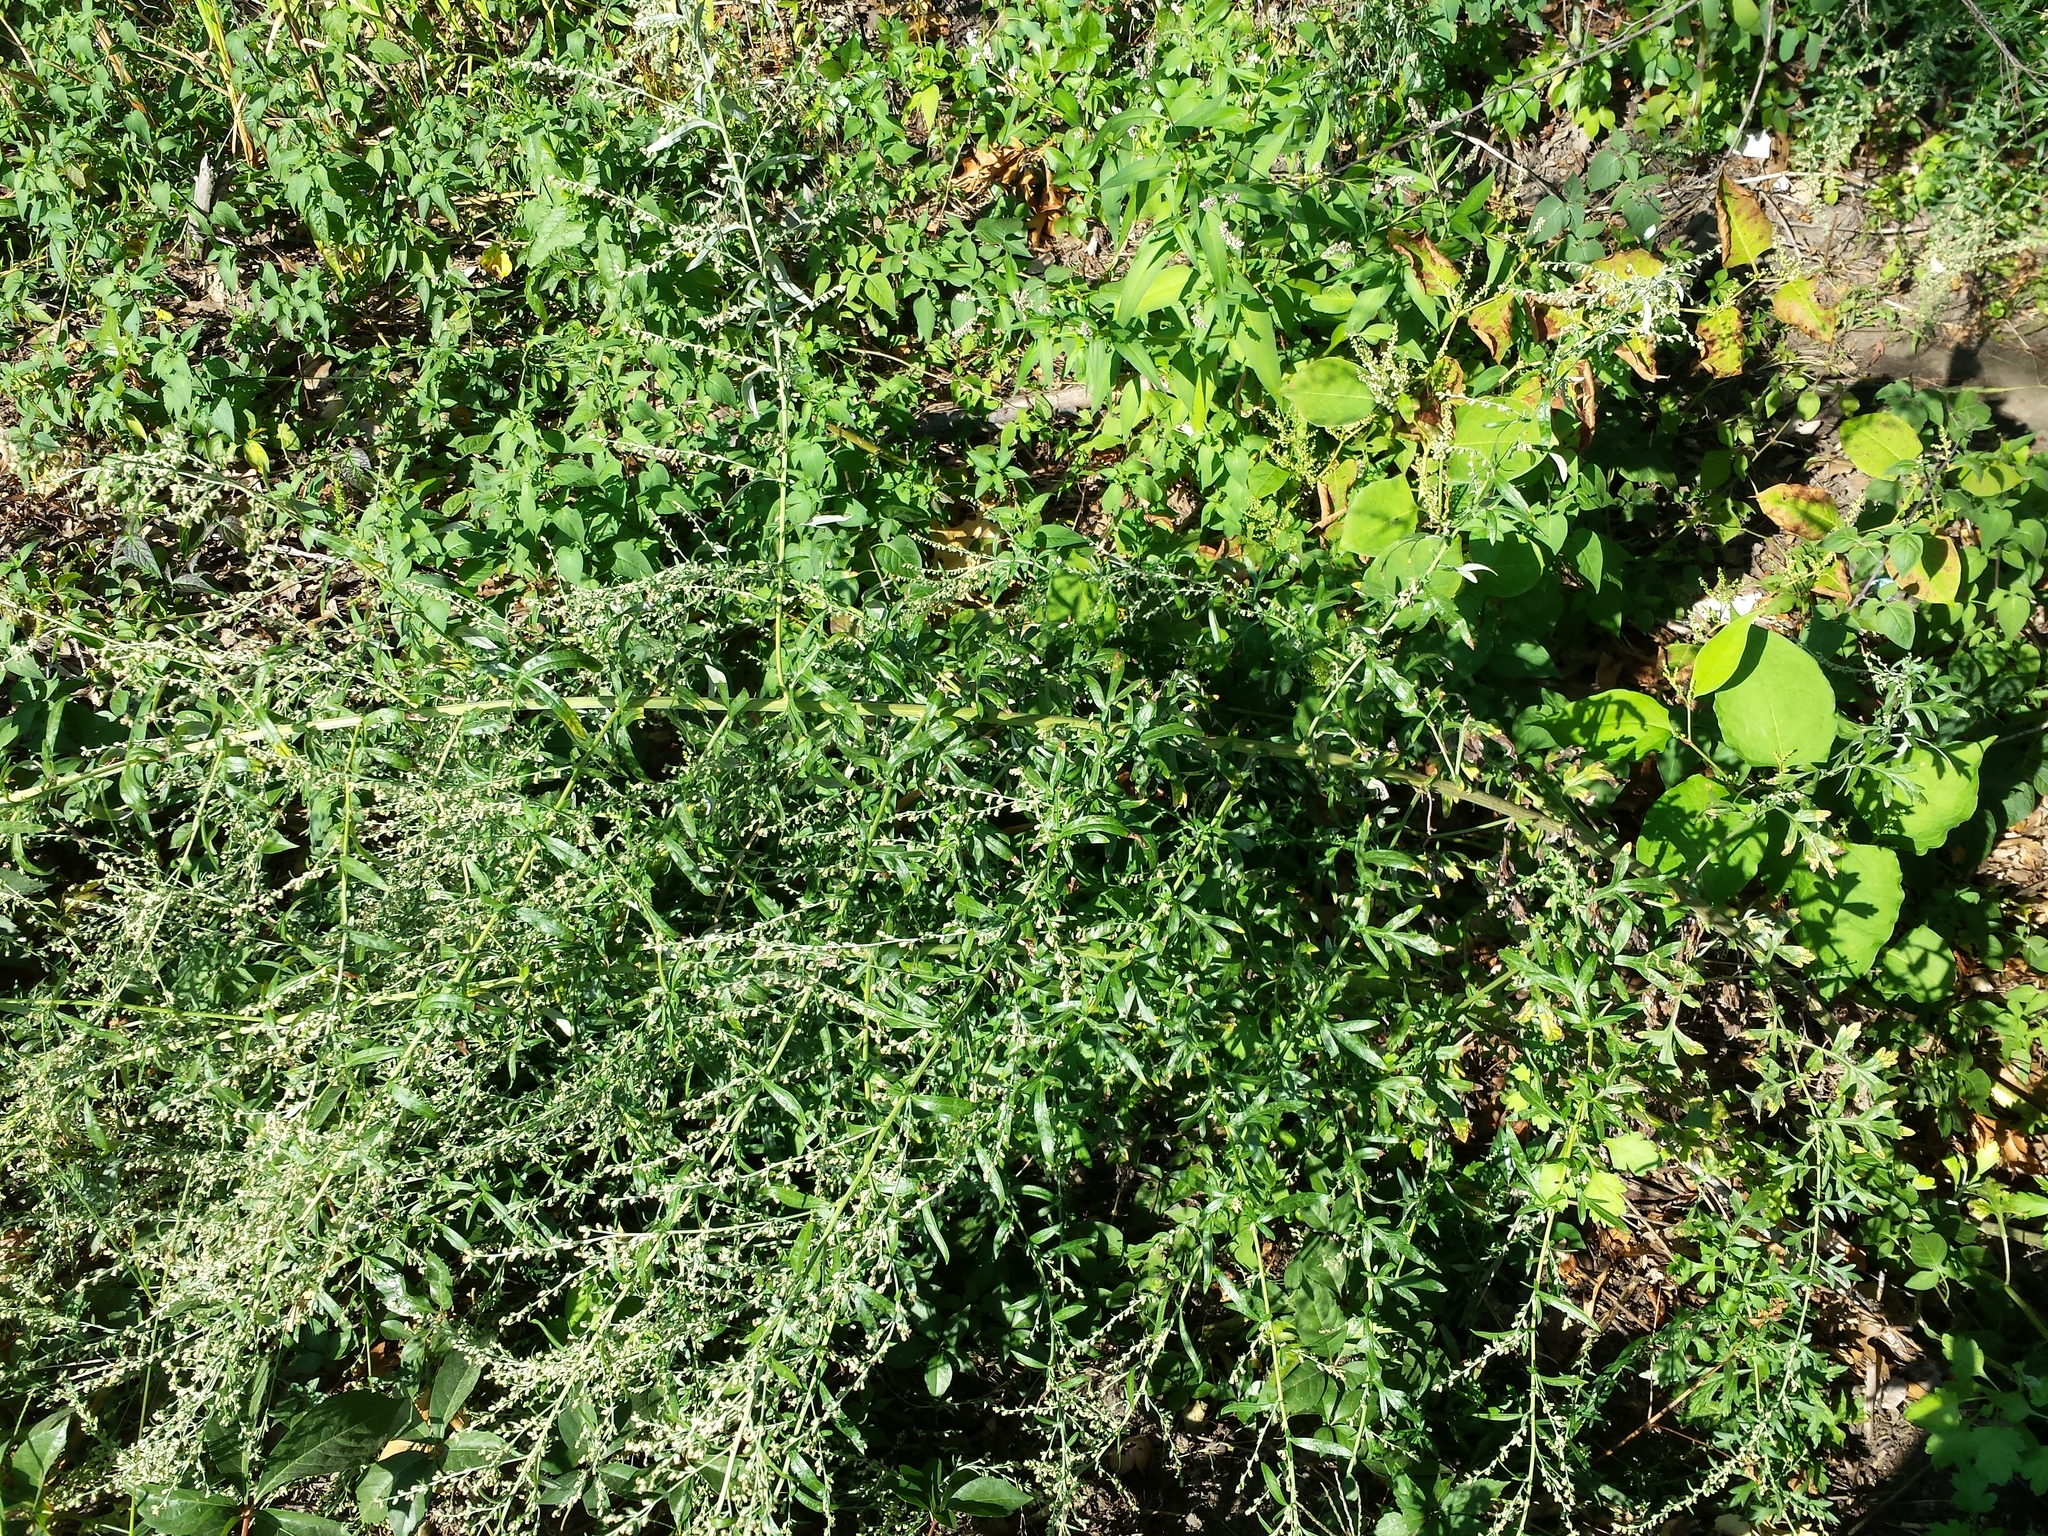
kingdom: Plantae
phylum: Tracheophyta
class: Magnoliopsida
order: Asterales
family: Asteraceae
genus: Artemisia
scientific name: Artemisia vulgaris
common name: Mugwort
